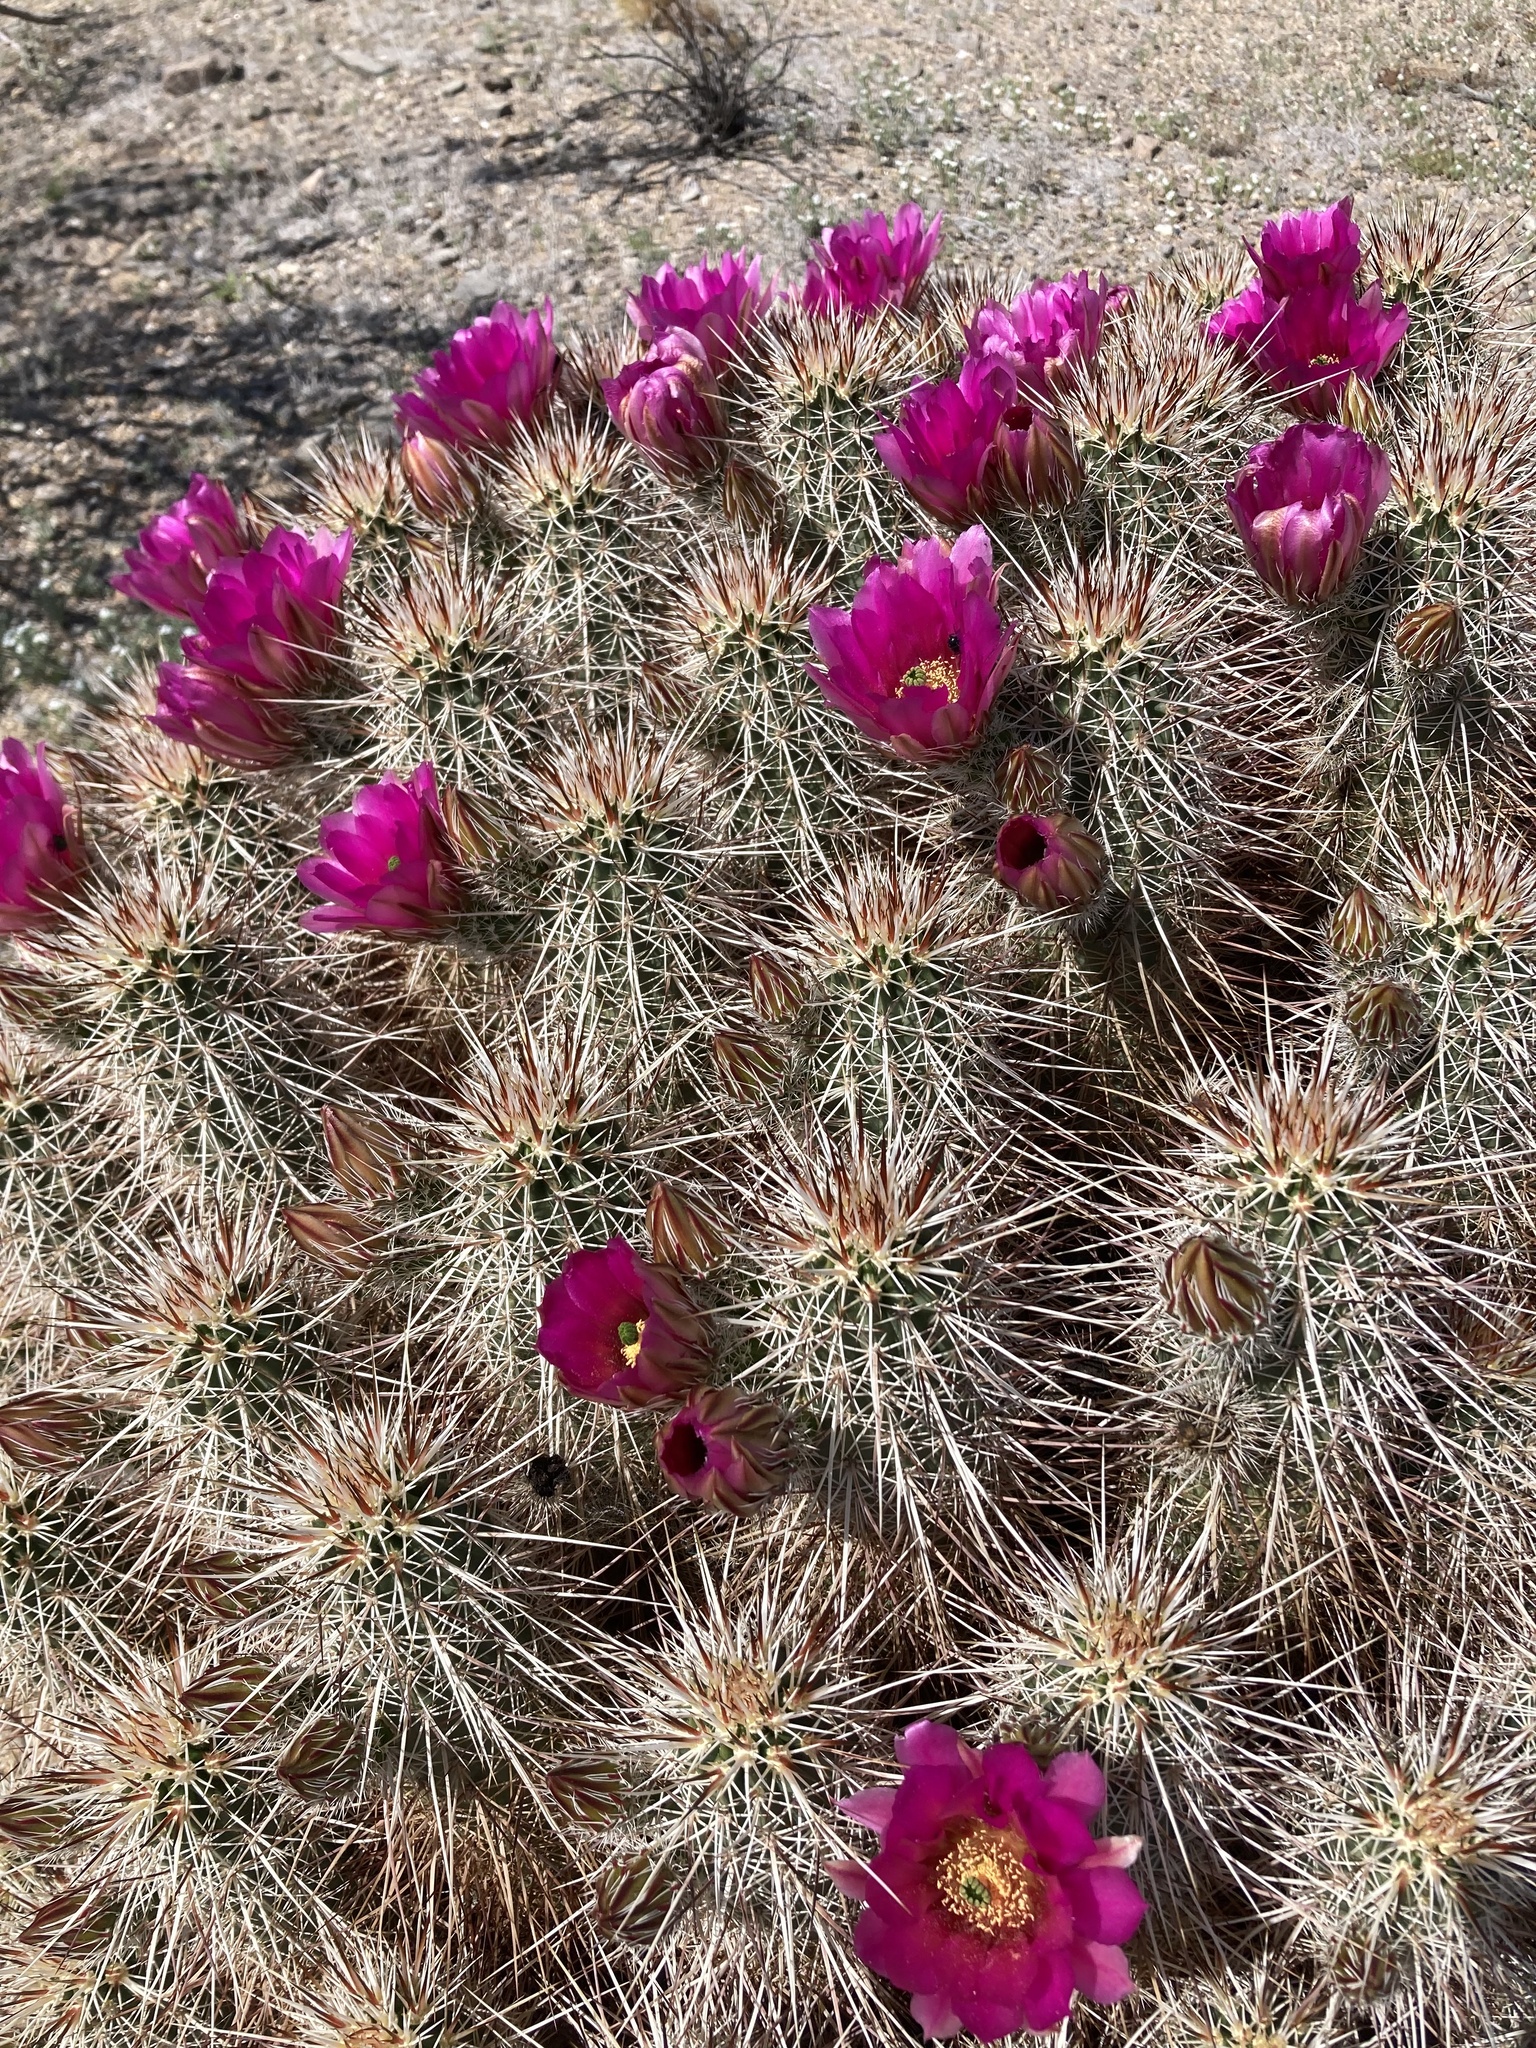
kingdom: Plantae
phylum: Tracheophyta
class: Magnoliopsida
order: Caryophyllales
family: Cactaceae
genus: Echinocereus
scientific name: Echinocereus engelmannii
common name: Engelmann's hedgehog cactus
